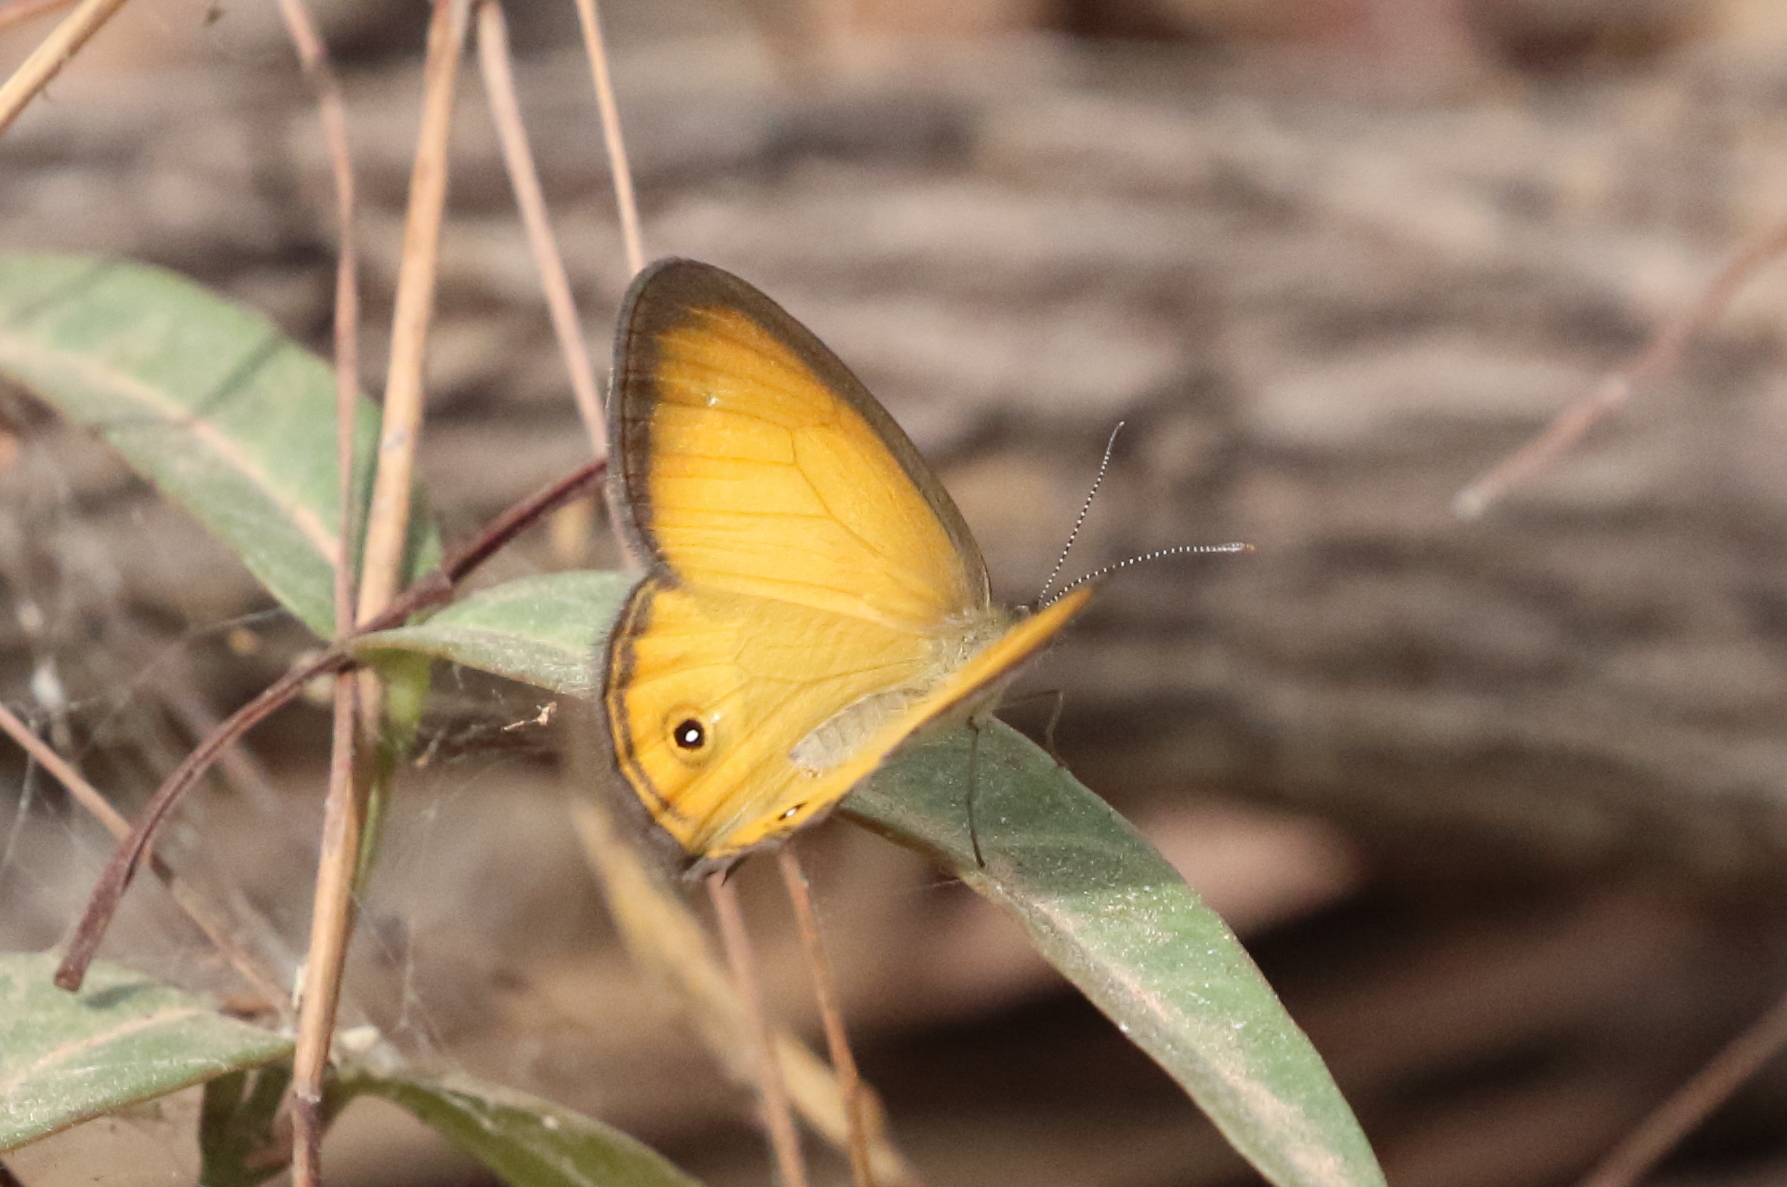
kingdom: Animalia
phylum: Arthropoda
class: Insecta
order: Lepidoptera
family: Nymphalidae
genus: Hypocysta
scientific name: Hypocysta adiante
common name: Orange ringlet
